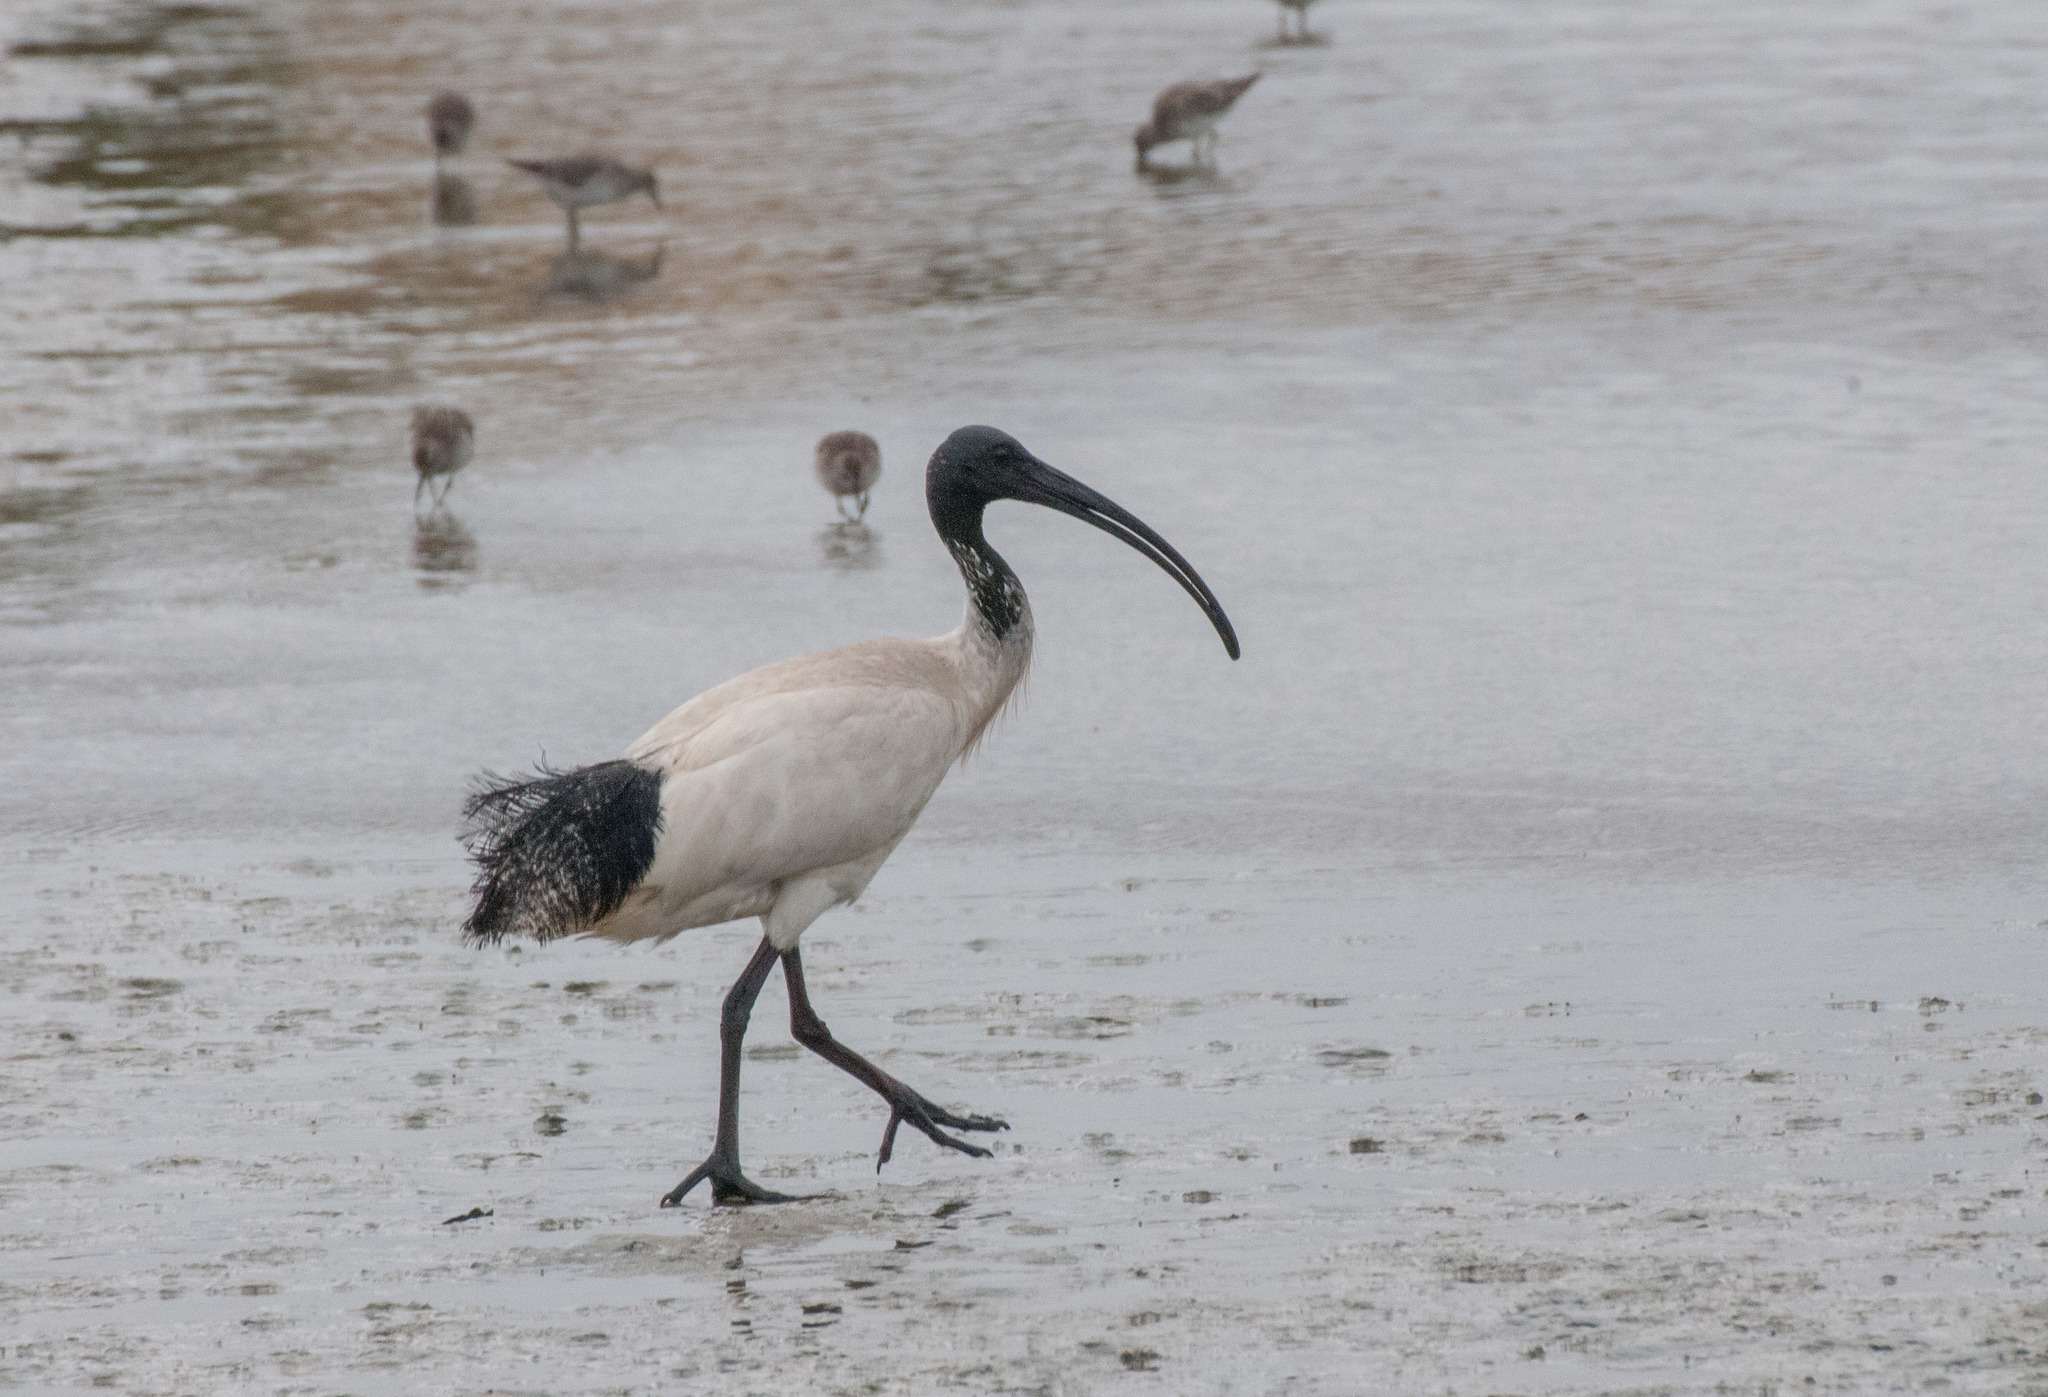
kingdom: Animalia
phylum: Chordata
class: Aves
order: Pelecaniformes
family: Threskiornithidae
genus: Threskiornis
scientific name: Threskiornis molucca
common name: Australian white ibis
